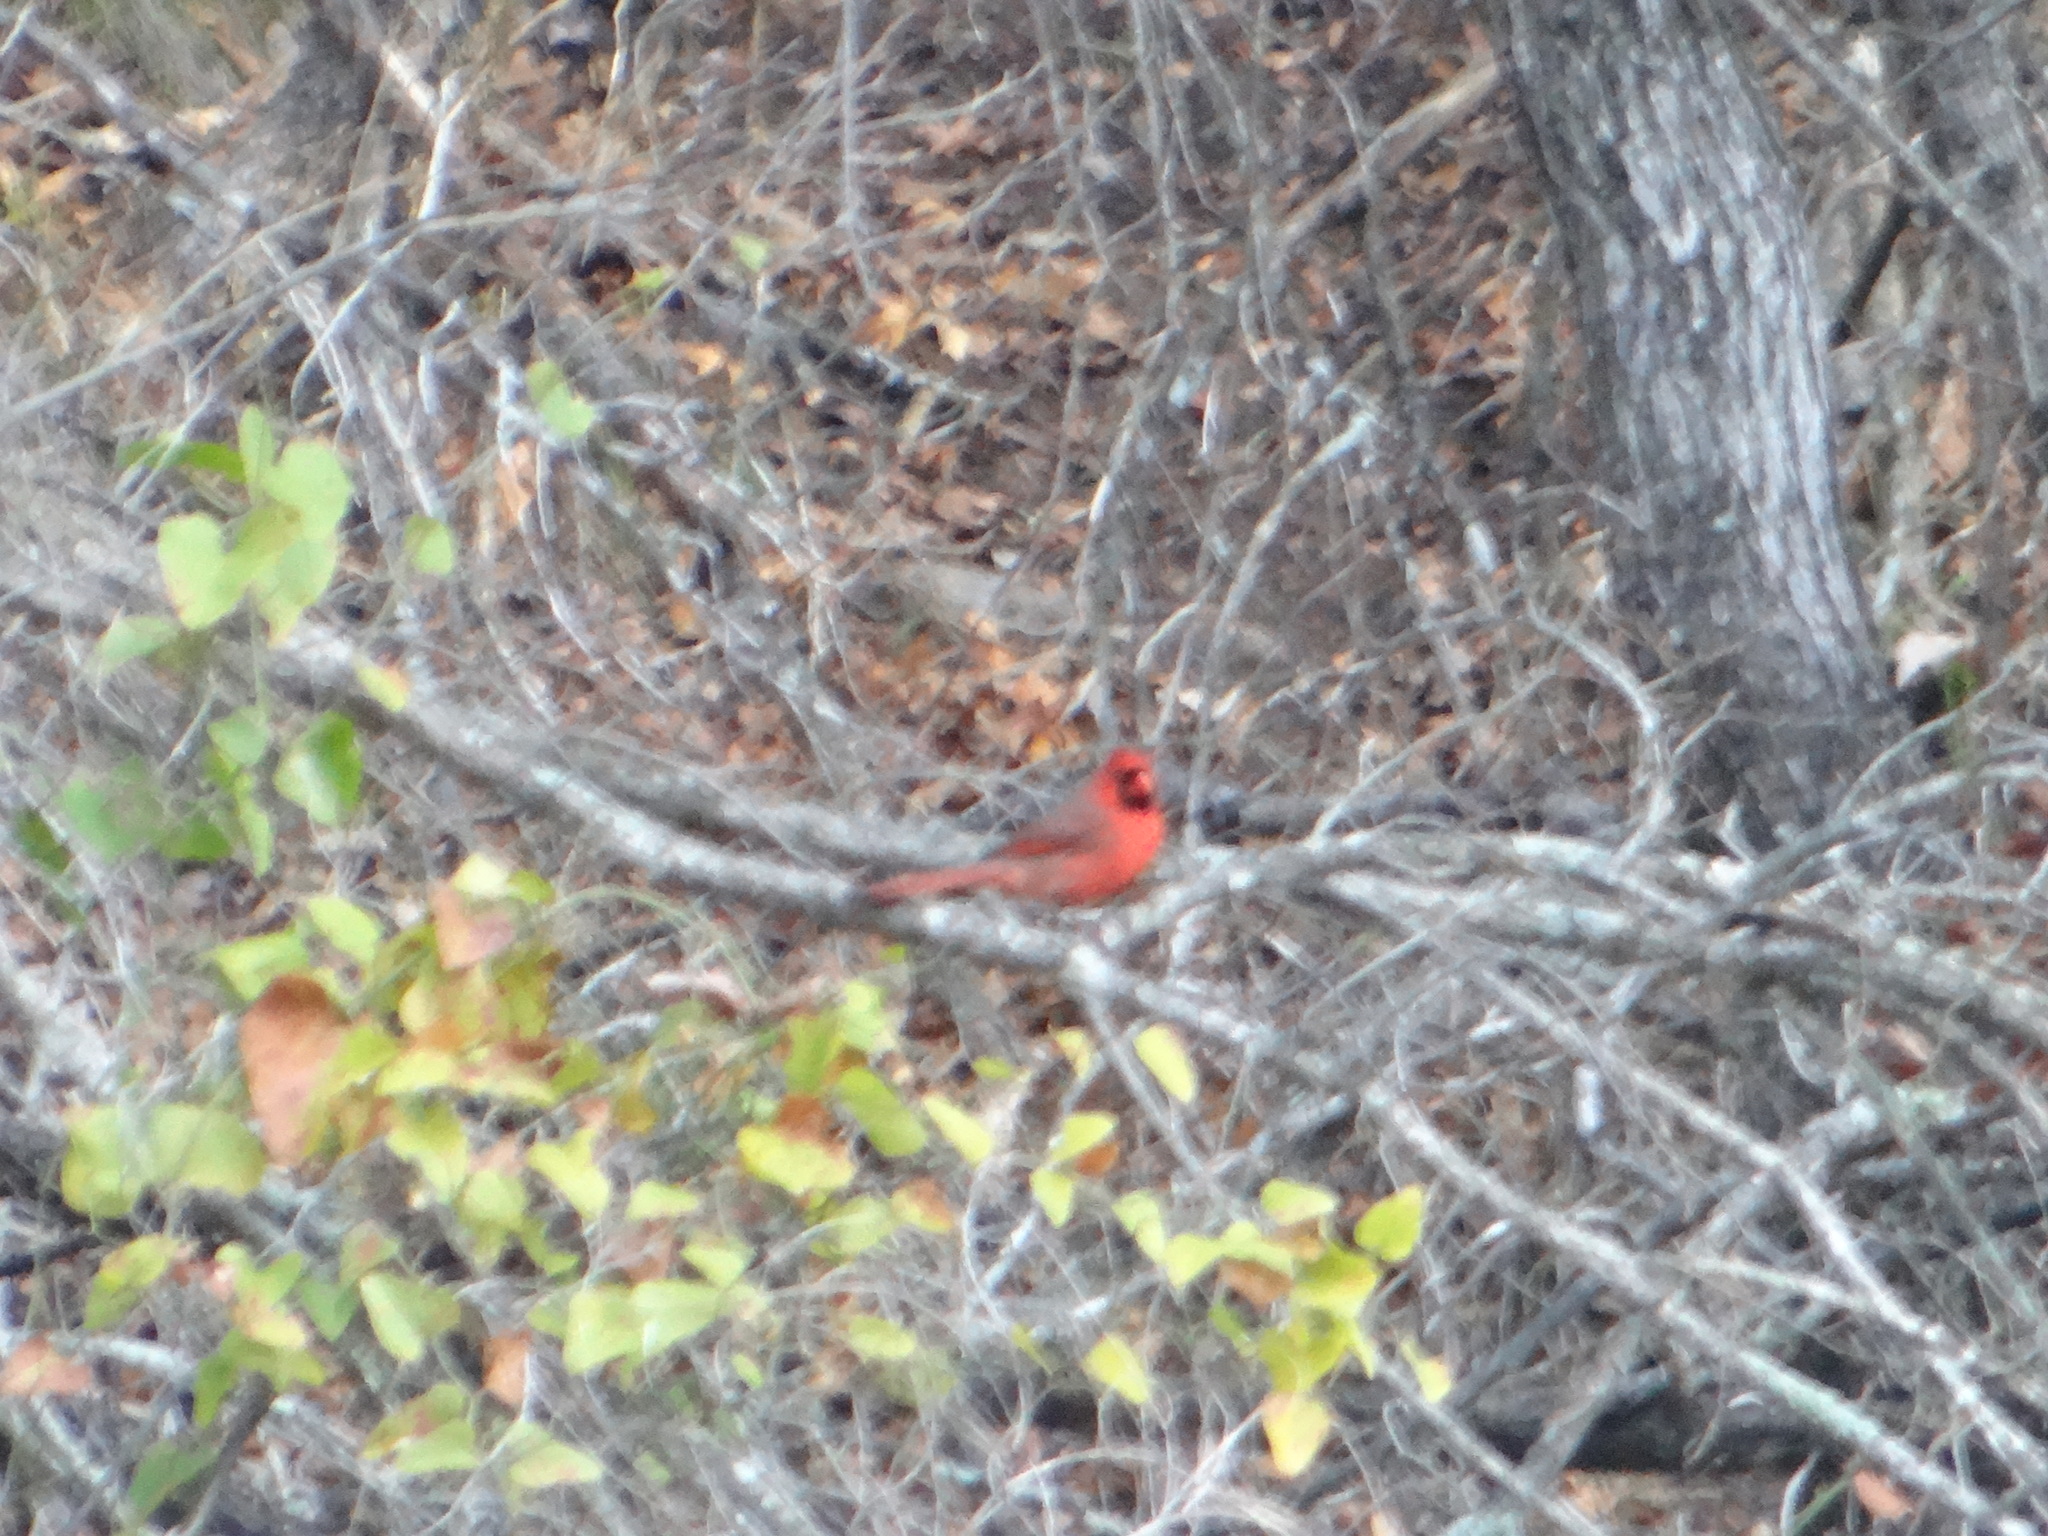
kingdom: Animalia
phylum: Chordata
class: Aves
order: Passeriformes
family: Cardinalidae
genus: Cardinalis
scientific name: Cardinalis cardinalis
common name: Northern cardinal
